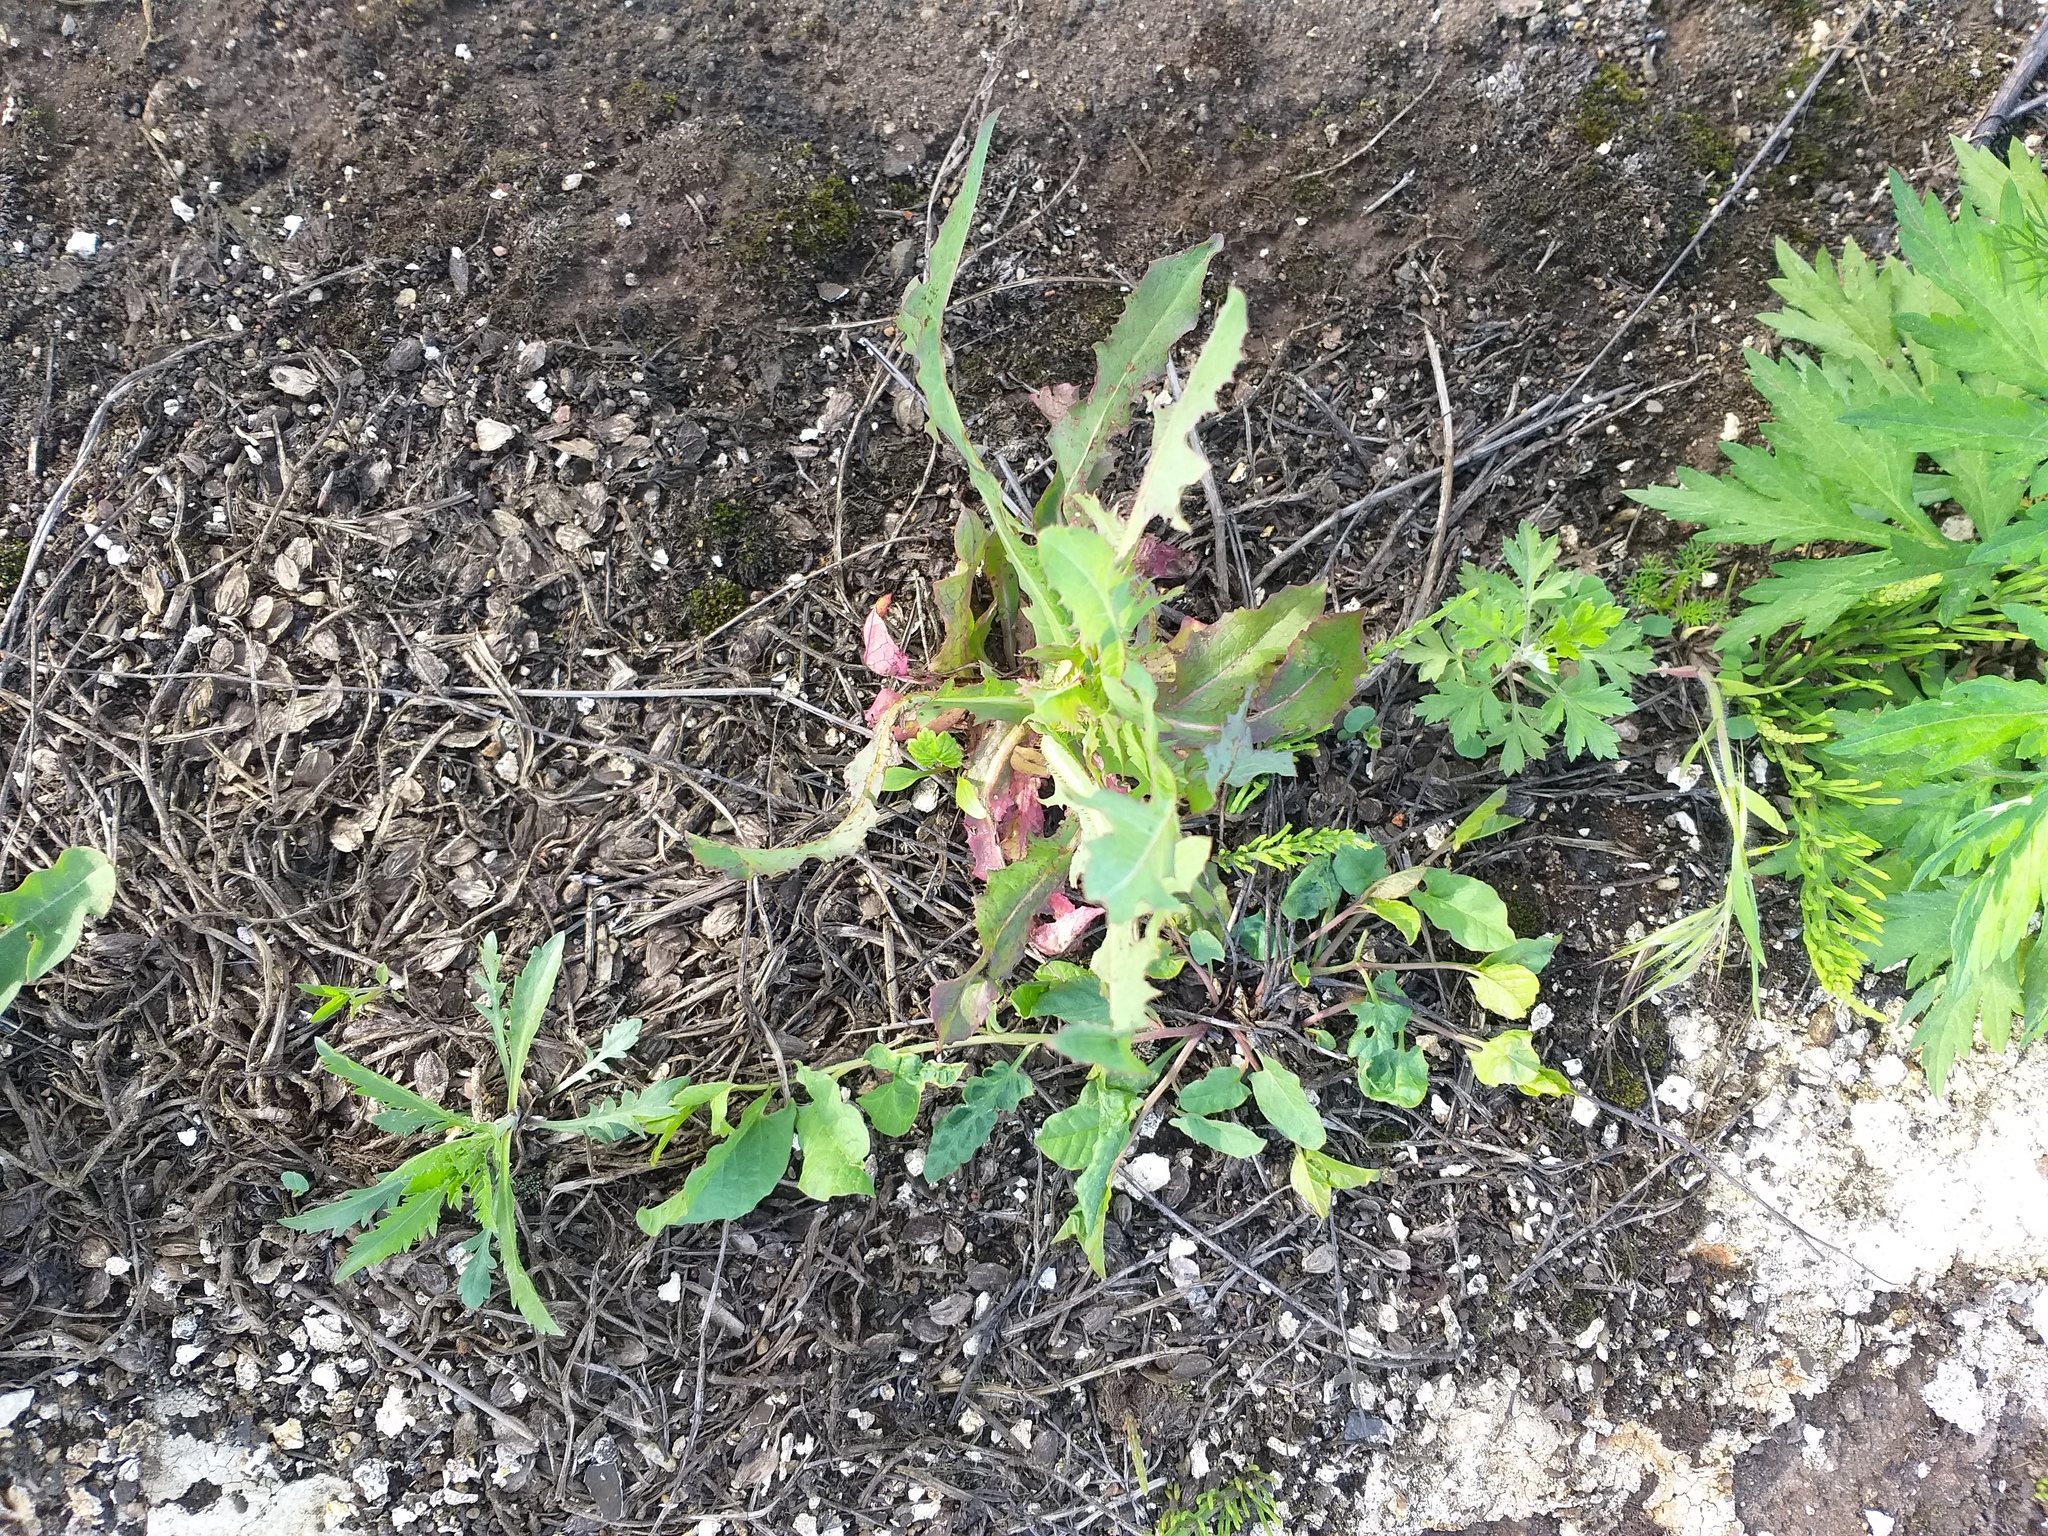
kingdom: Plantae
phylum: Tracheophyta
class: Magnoliopsida
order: Asterales
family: Asteraceae
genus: Lactuca
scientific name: Lactuca serriola
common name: Prickly lettuce
